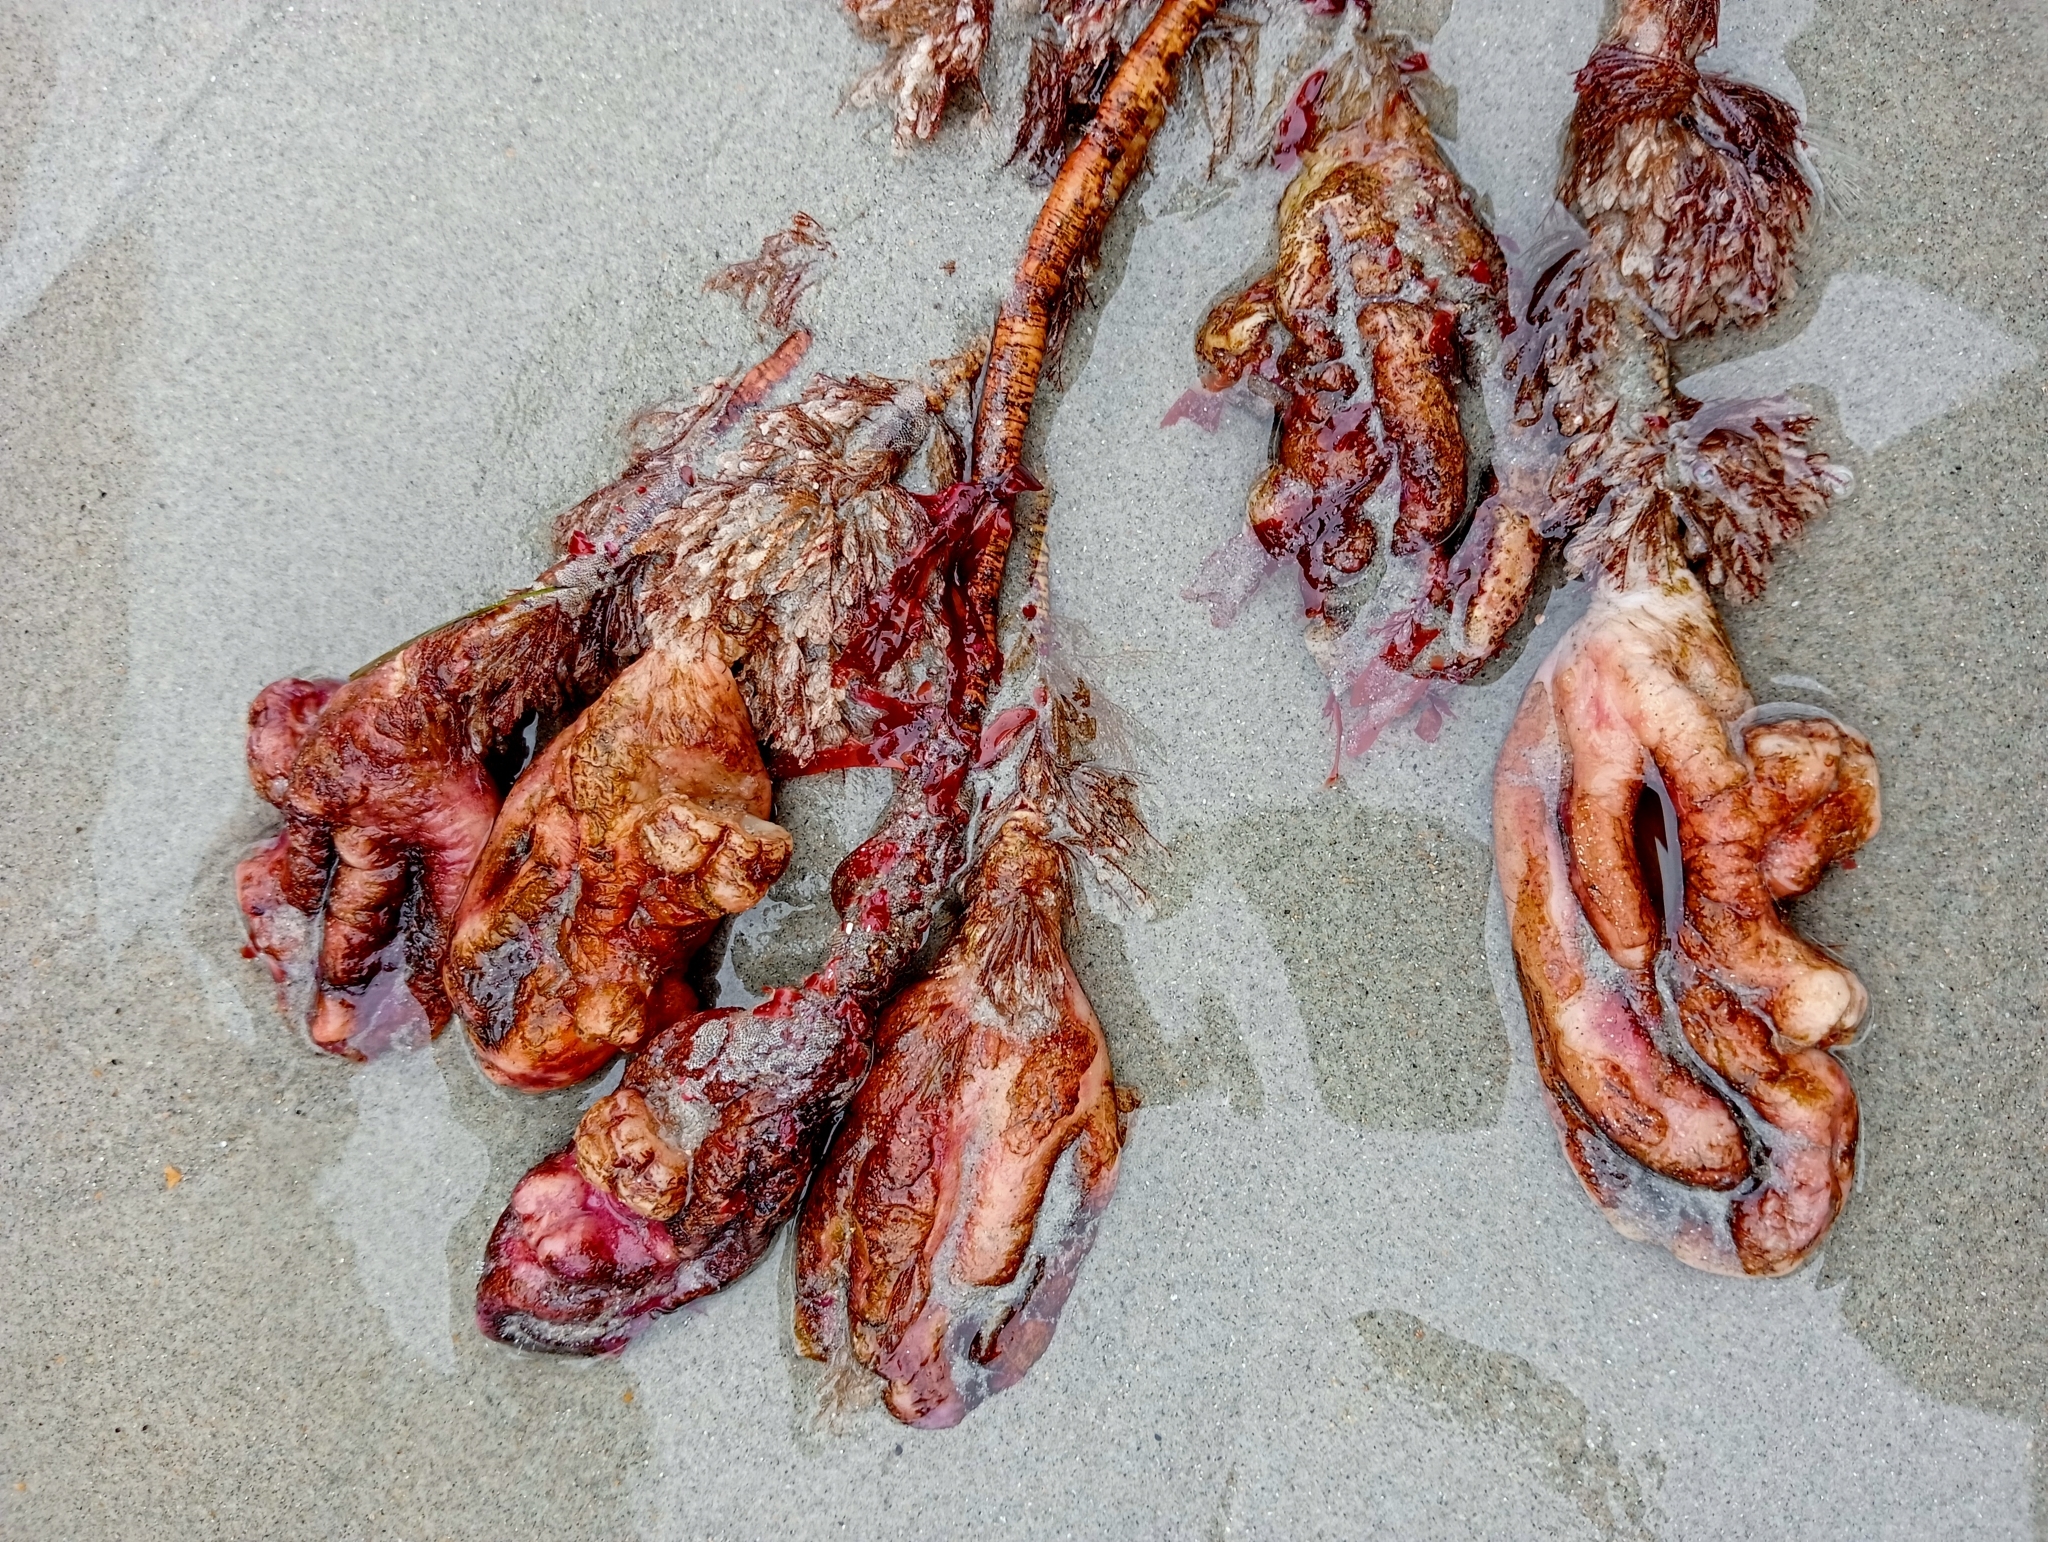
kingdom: Animalia
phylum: Chordata
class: Ascidiacea
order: Stolidobranchia
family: Pyuridae
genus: Pyura
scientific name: Pyura pachydermatina
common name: Sea tulip
